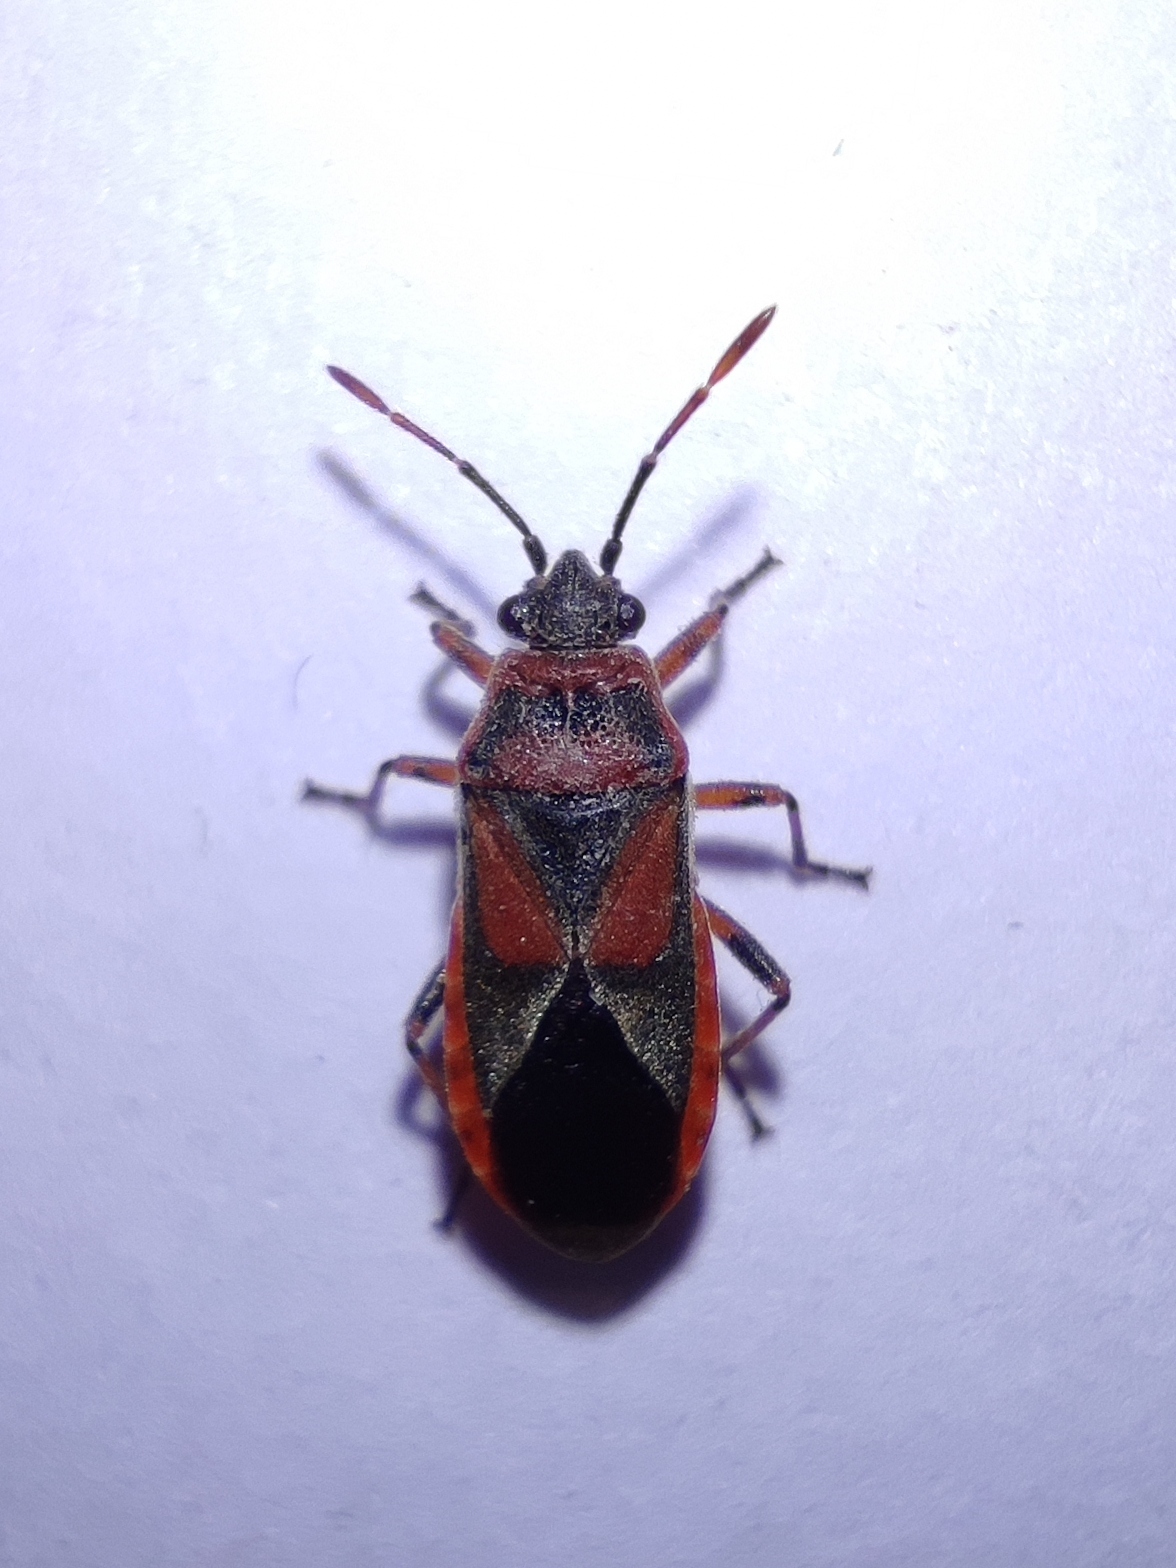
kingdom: Animalia
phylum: Arthropoda
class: Insecta
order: Hemiptera
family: Lygaeidae
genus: Arocatus
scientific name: Arocatus melanocephalus
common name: Lygaeid bug
